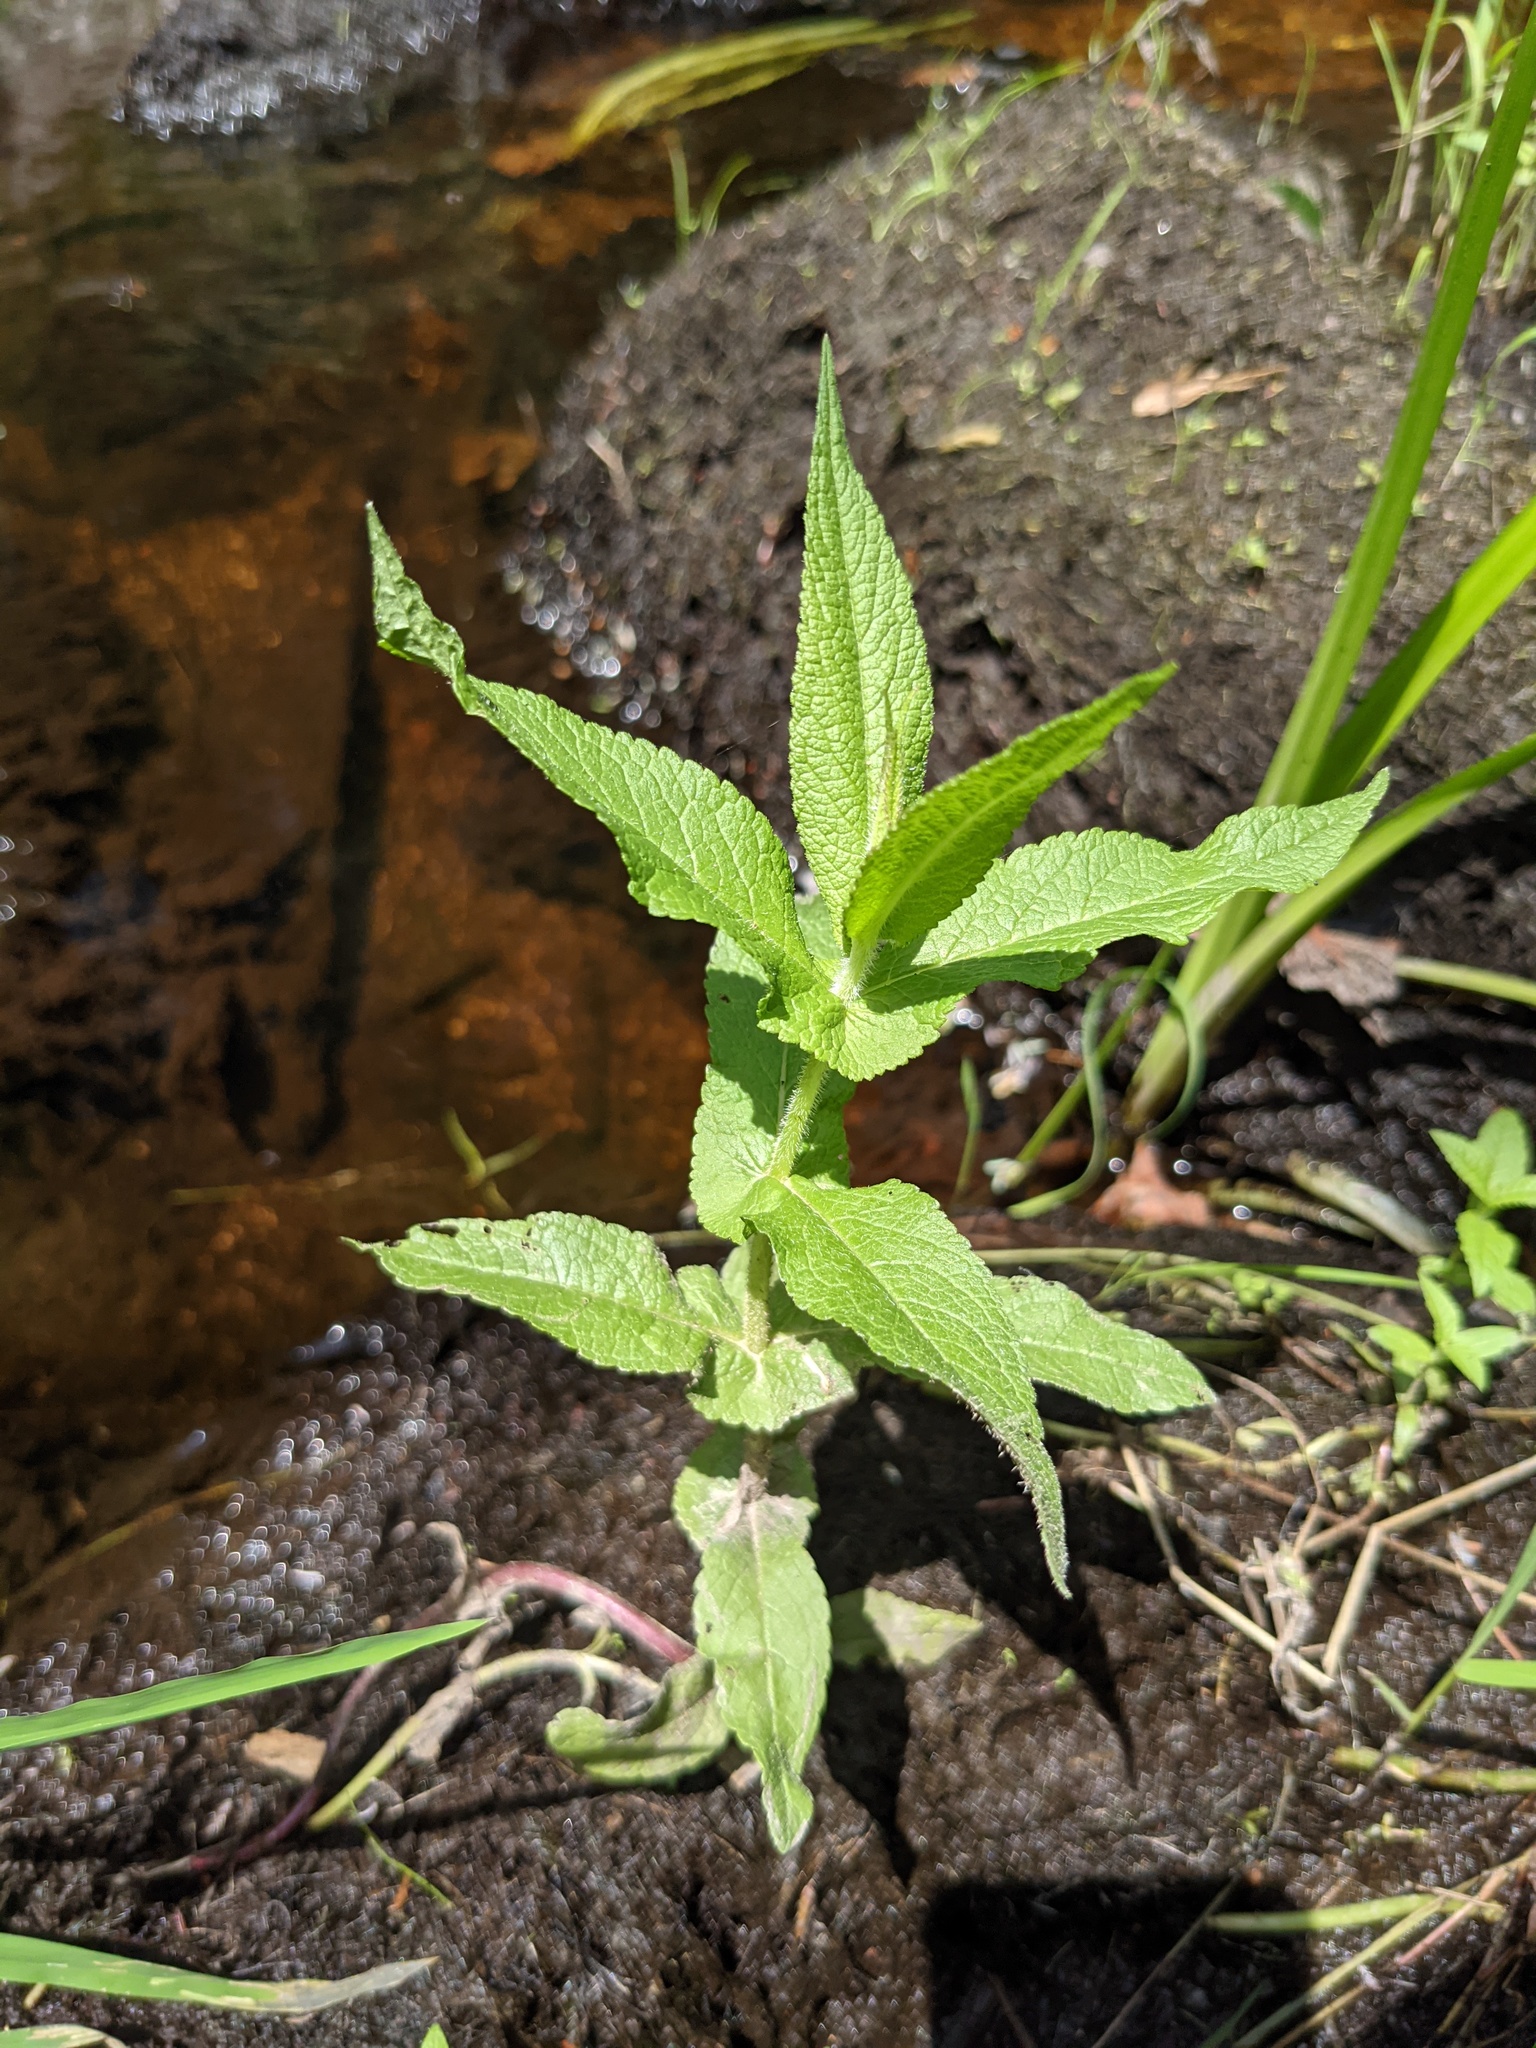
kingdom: Plantae
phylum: Tracheophyta
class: Magnoliopsida
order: Asterales
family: Asteraceae
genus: Eupatorium
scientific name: Eupatorium perfoliatum
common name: Boneset
